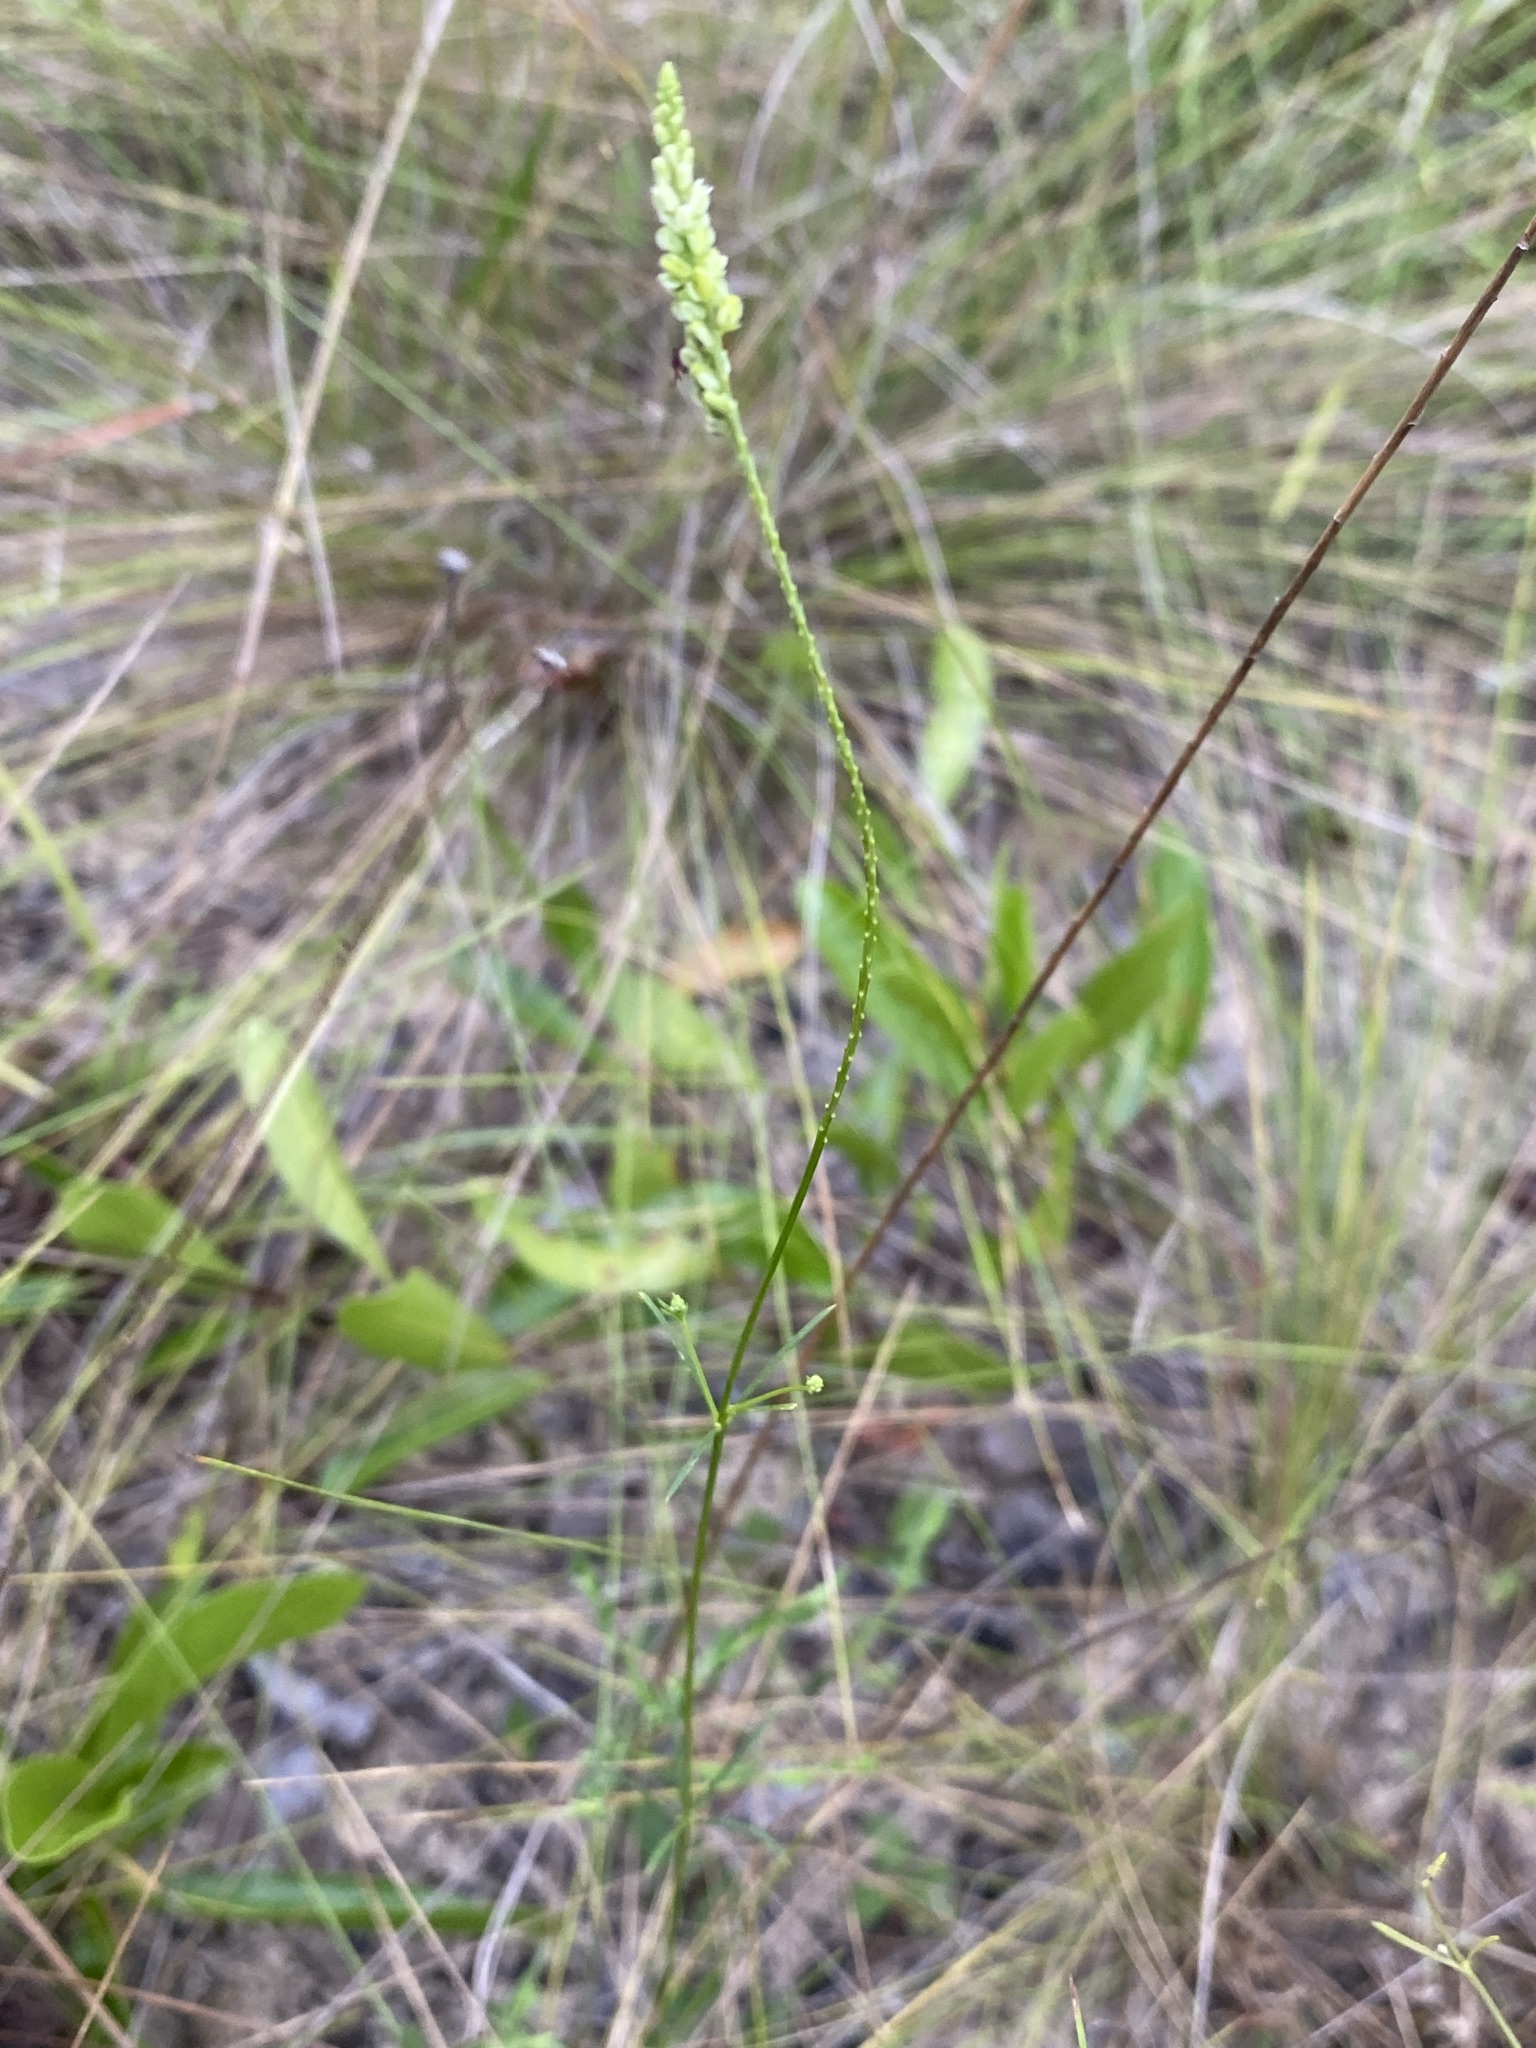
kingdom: Plantae
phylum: Tracheophyta
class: Magnoliopsida
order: Fabales
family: Polygalaceae
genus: Polygala
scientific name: Polygala leptostachys
